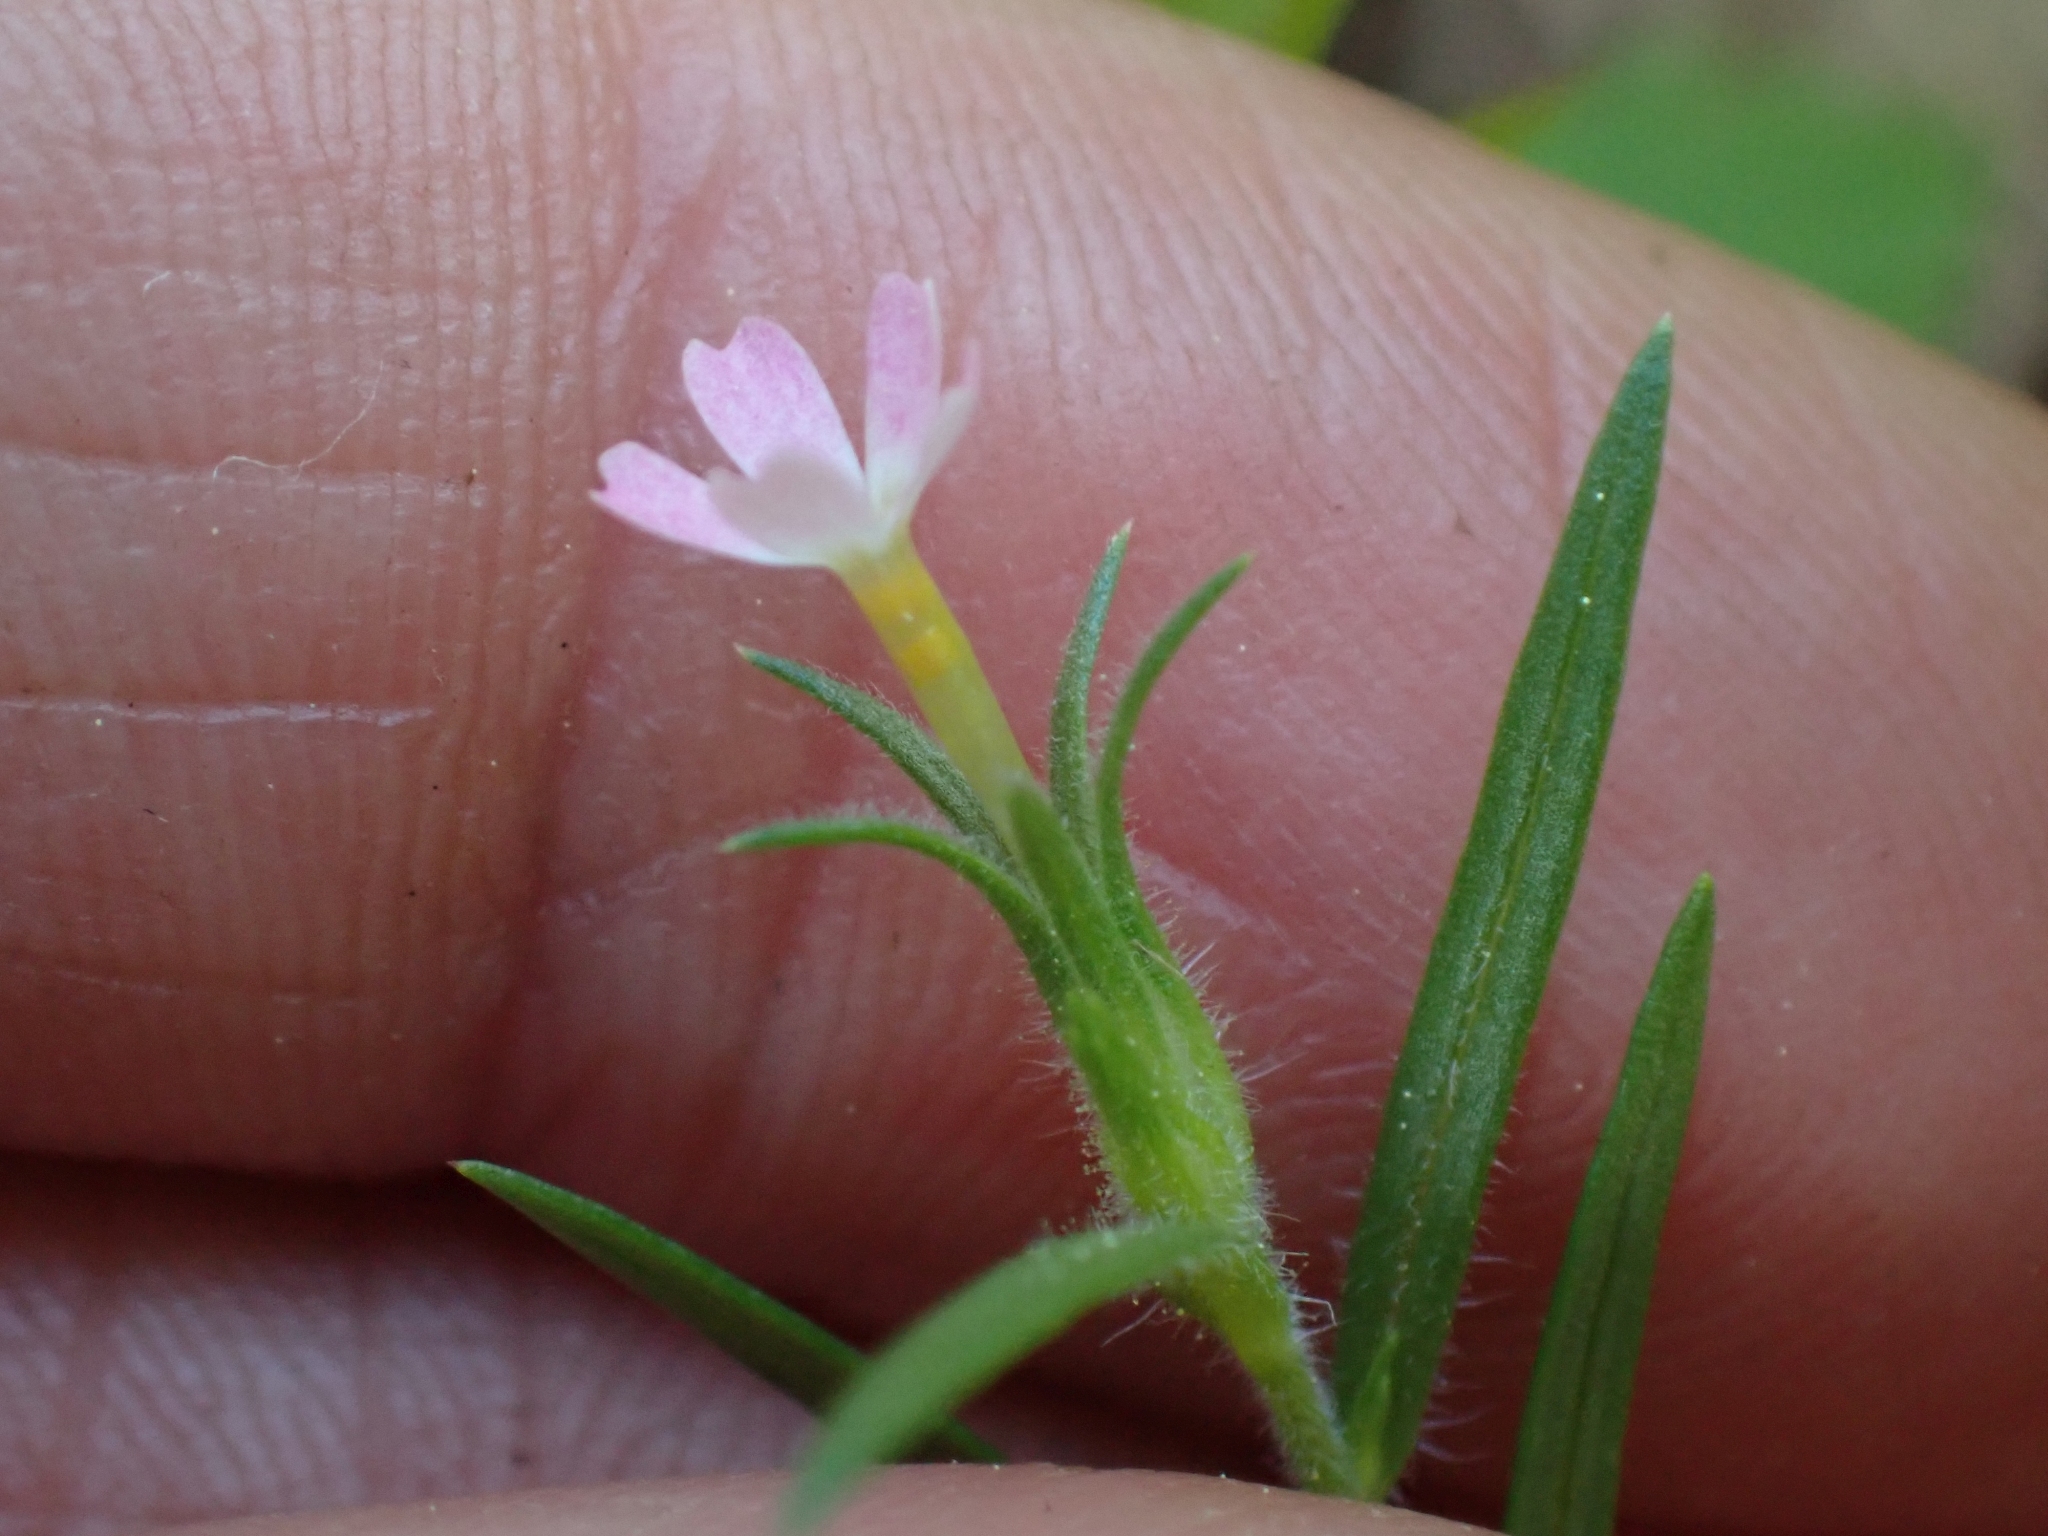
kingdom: Plantae
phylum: Tracheophyta
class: Magnoliopsida
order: Ericales
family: Polemoniaceae
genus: Phlox
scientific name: Phlox gracilis
